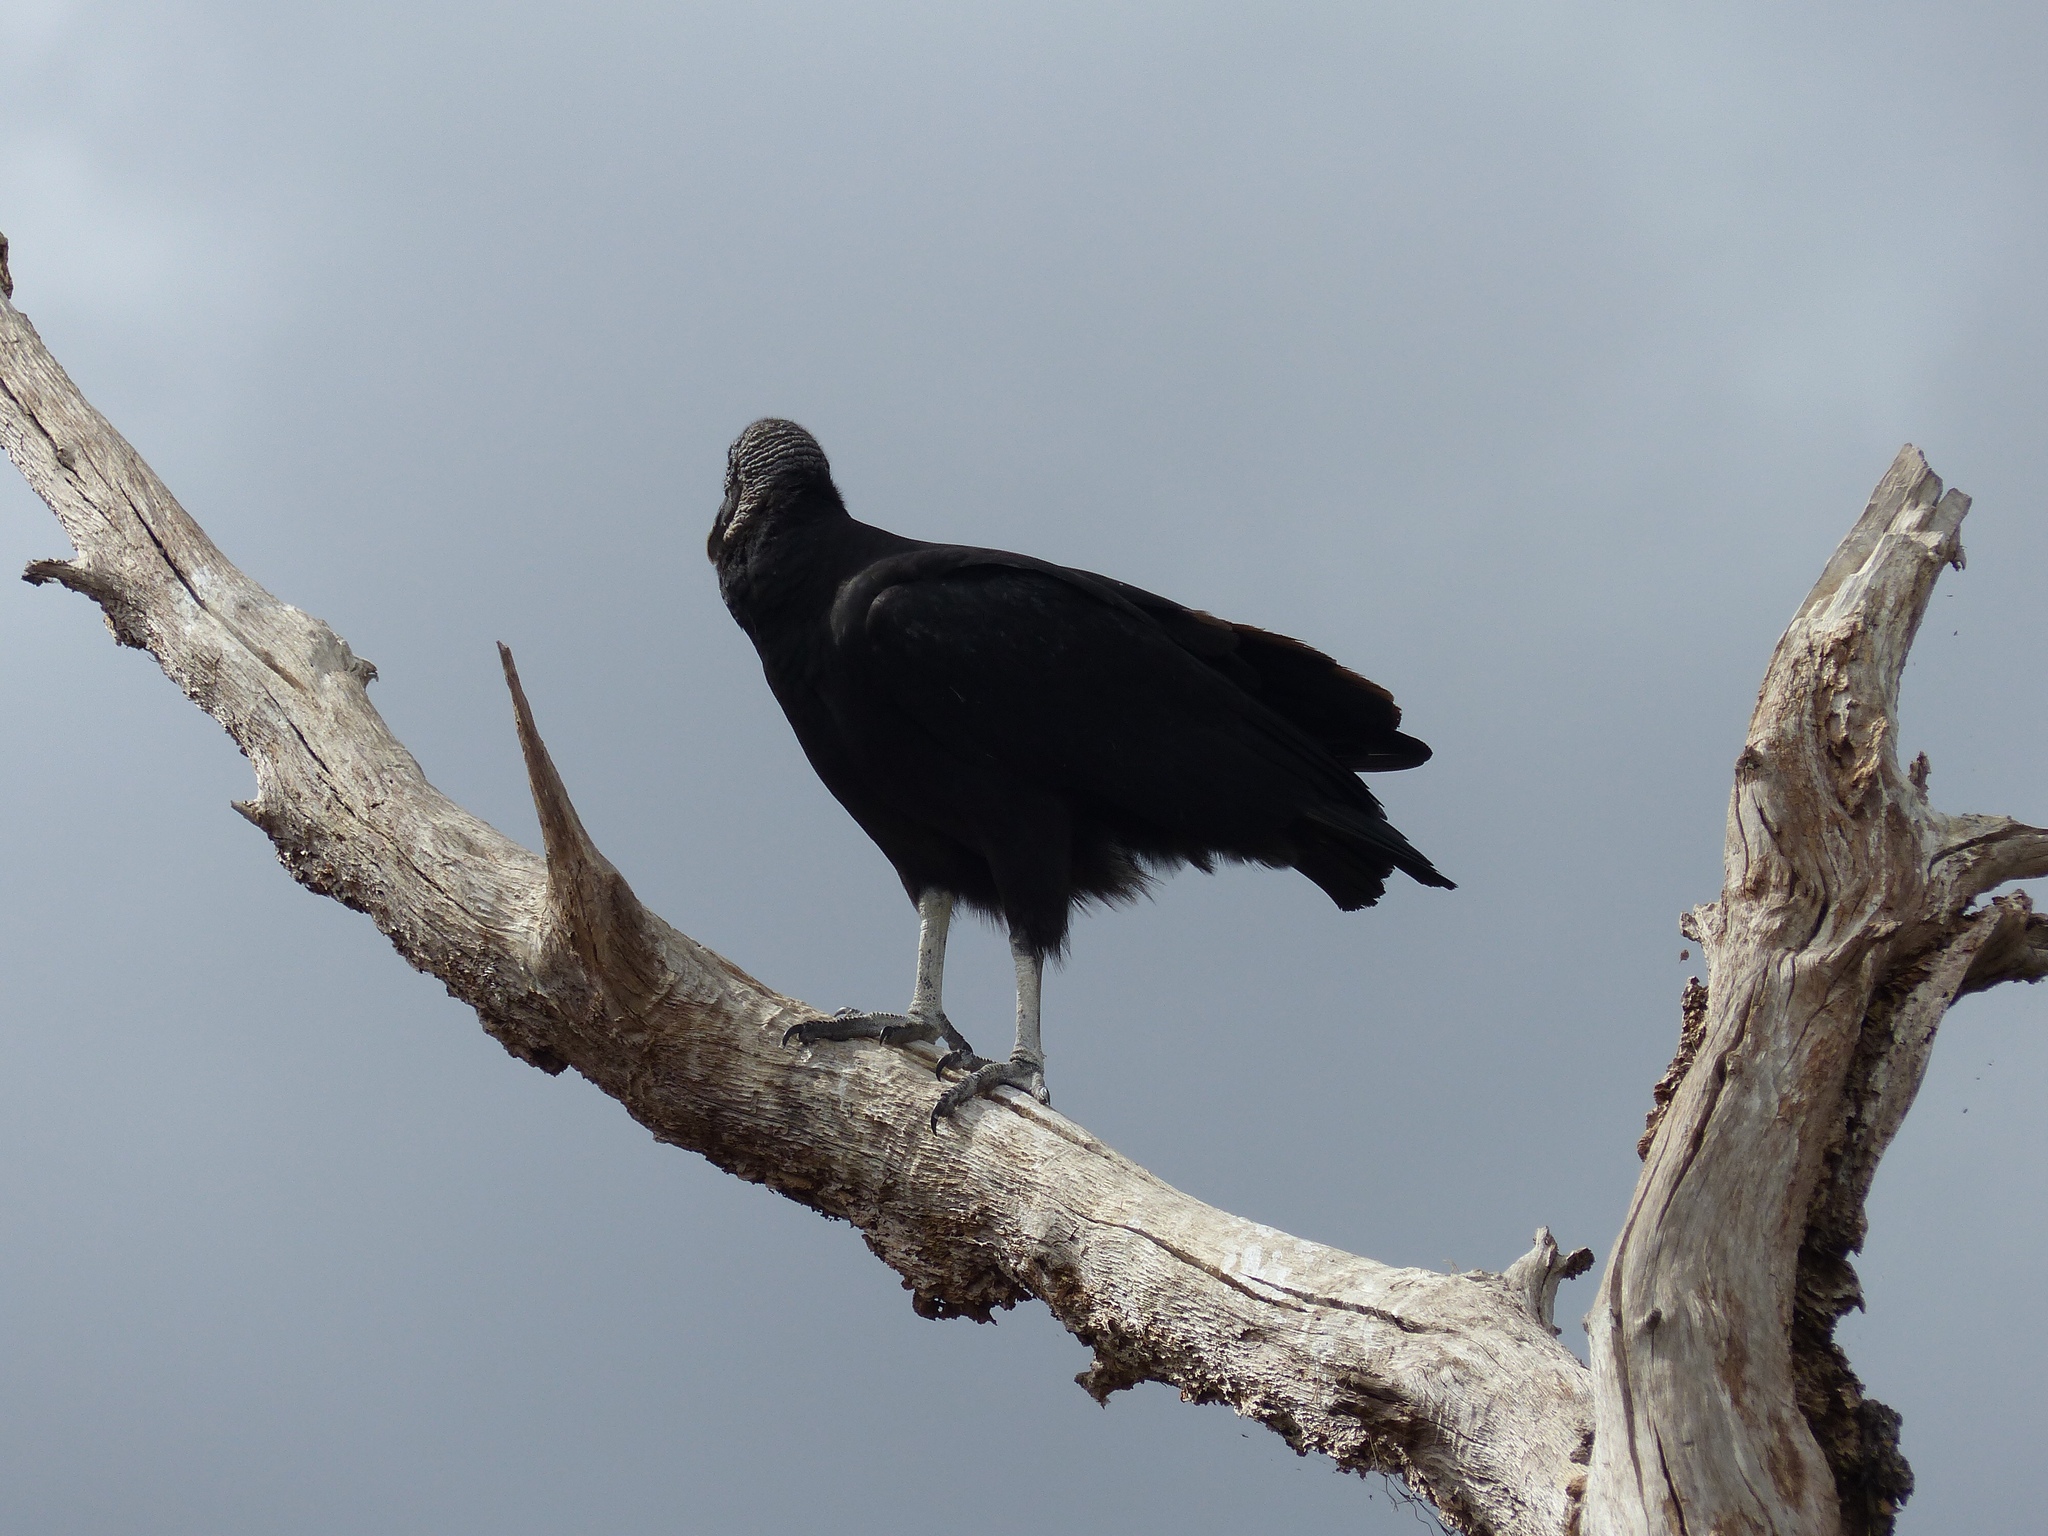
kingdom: Animalia
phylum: Chordata
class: Aves
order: Accipitriformes
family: Cathartidae
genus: Coragyps
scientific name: Coragyps atratus
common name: Black vulture
